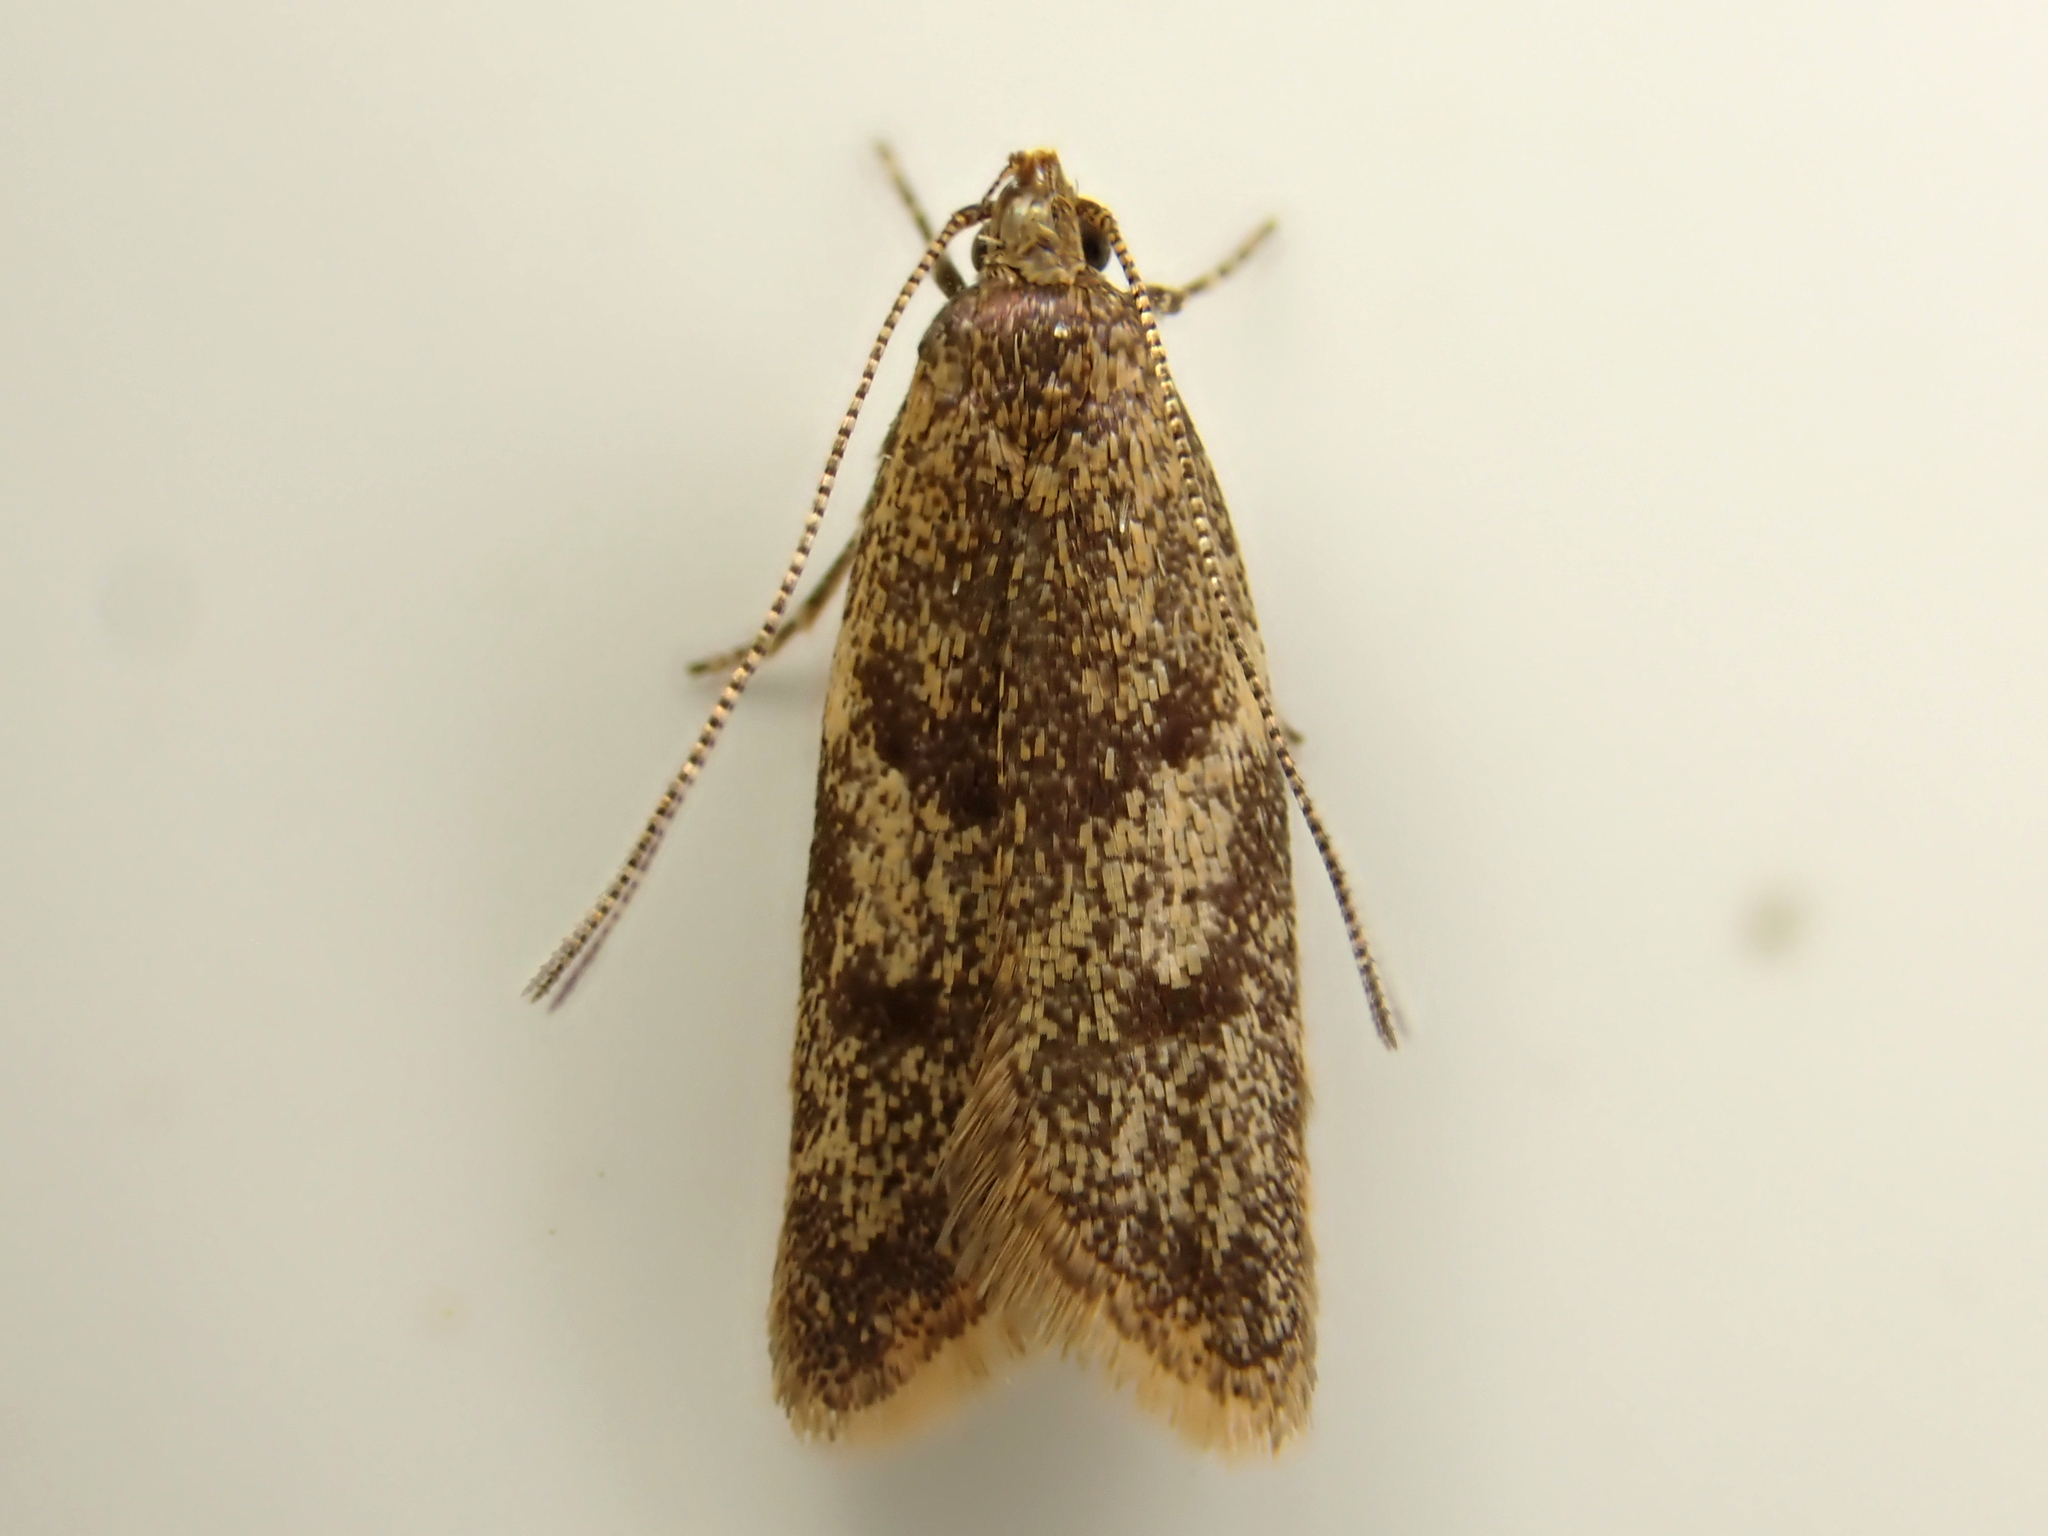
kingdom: Animalia
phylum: Arthropoda
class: Insecta
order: Lepidoptera
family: Oecophoridae
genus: Gymnobathra
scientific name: Gymnobathra tholodella
